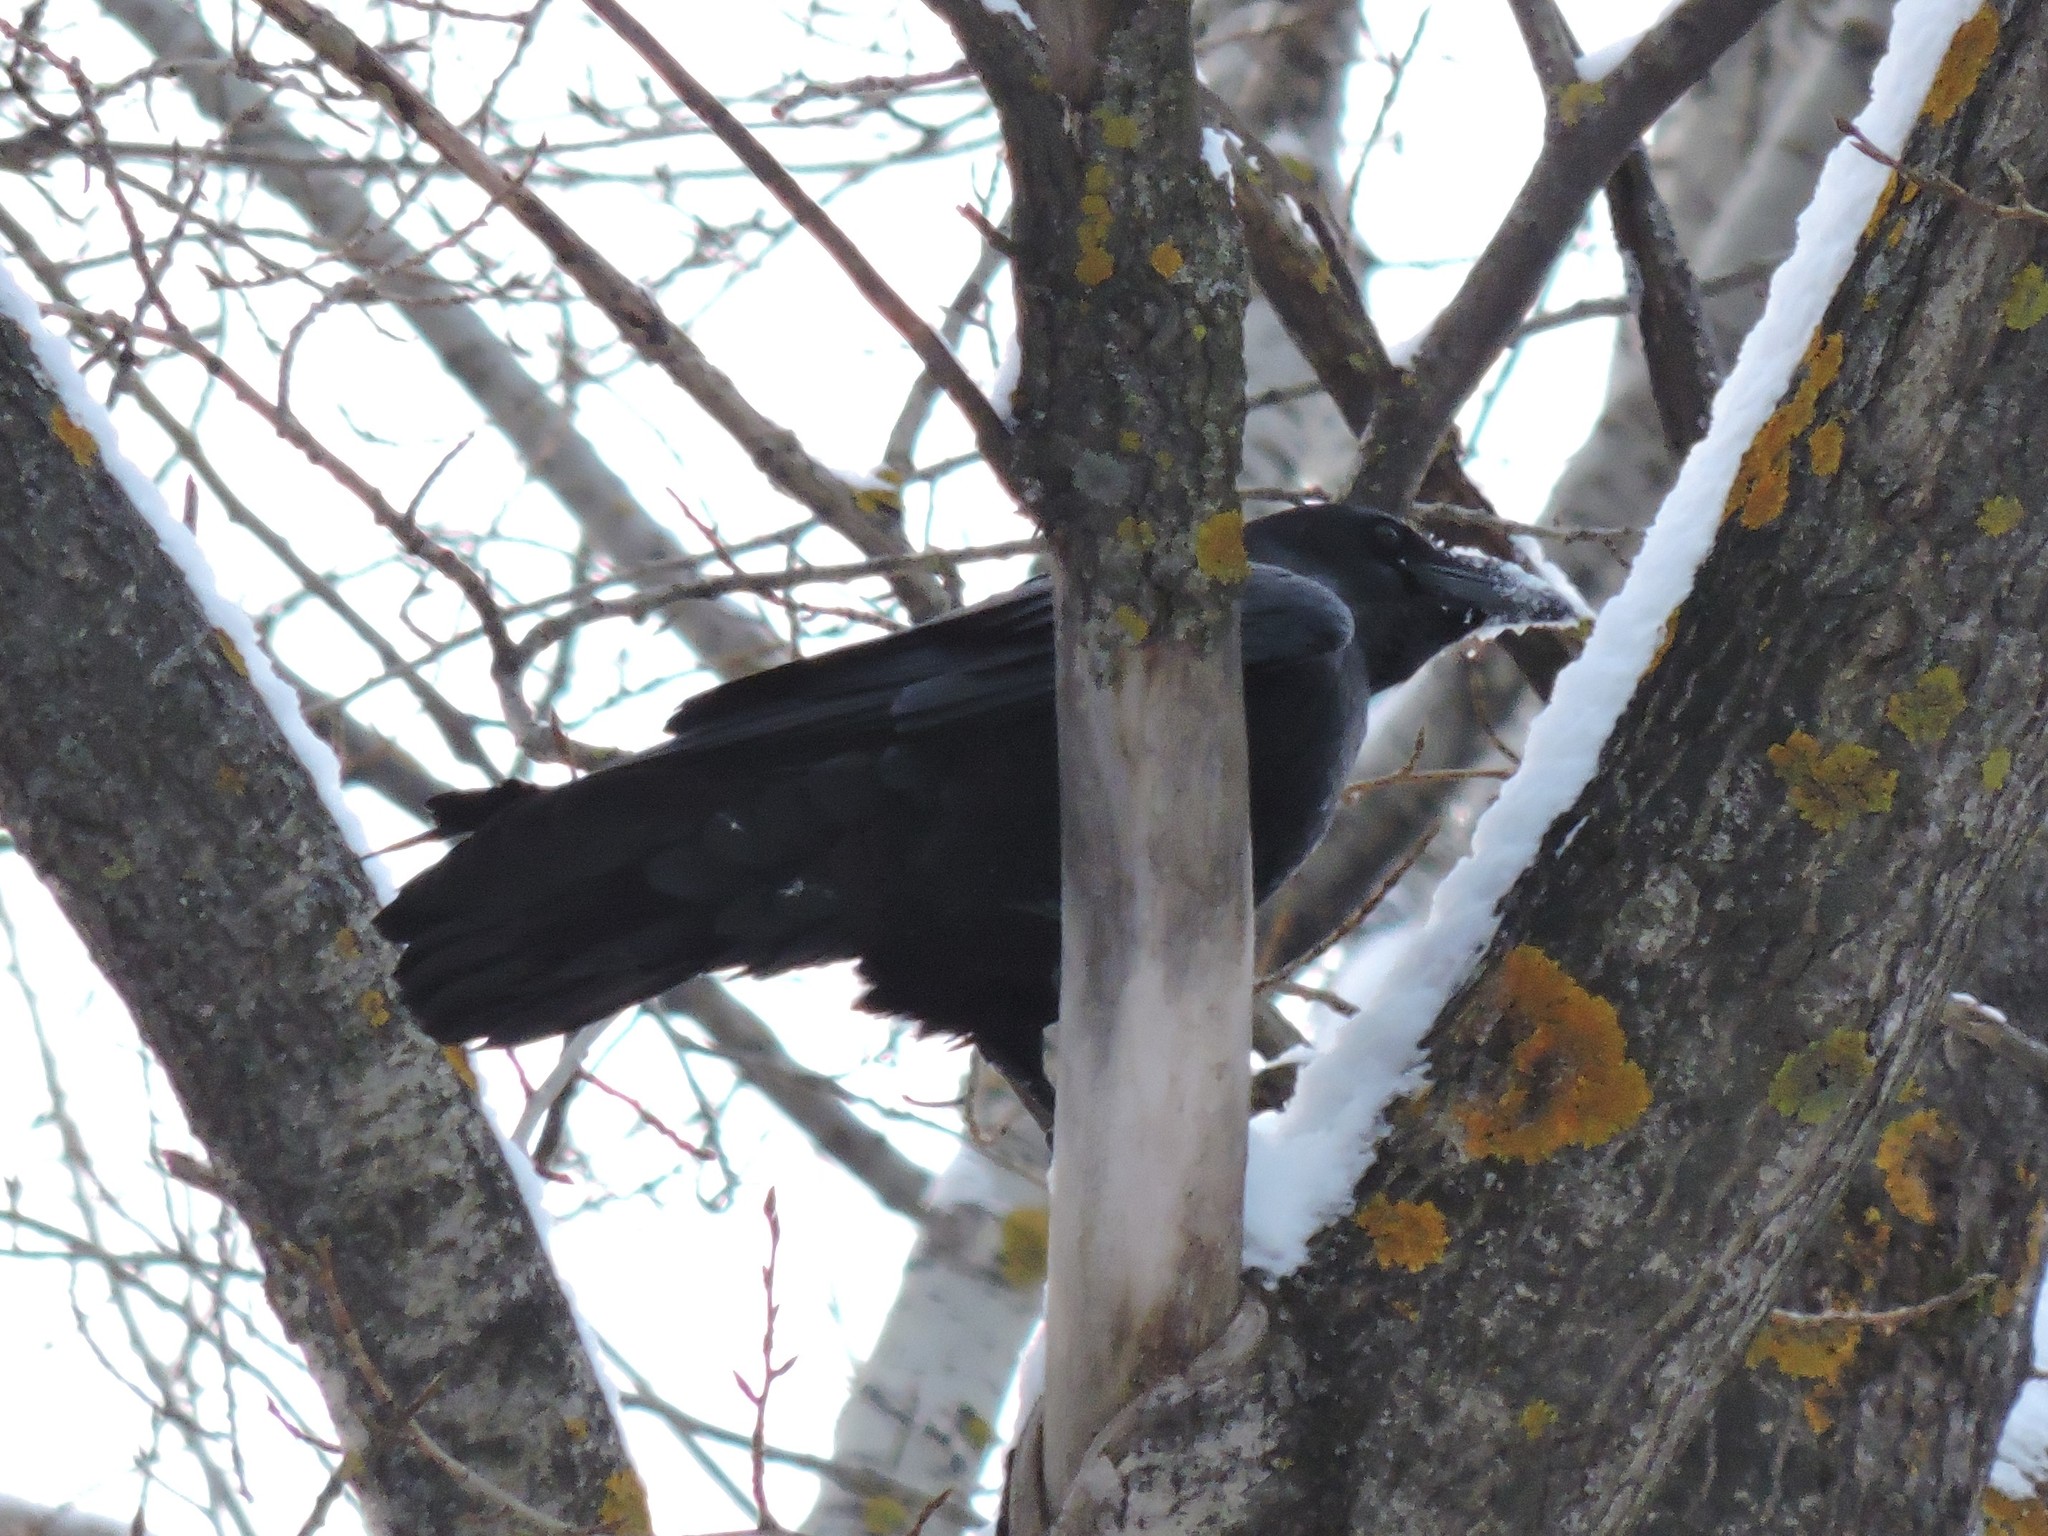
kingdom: Animalia
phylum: Chordata
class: Aves
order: Passeriformes
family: Corvidae
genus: Corvus
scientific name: Corvus corax
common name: Common raven
